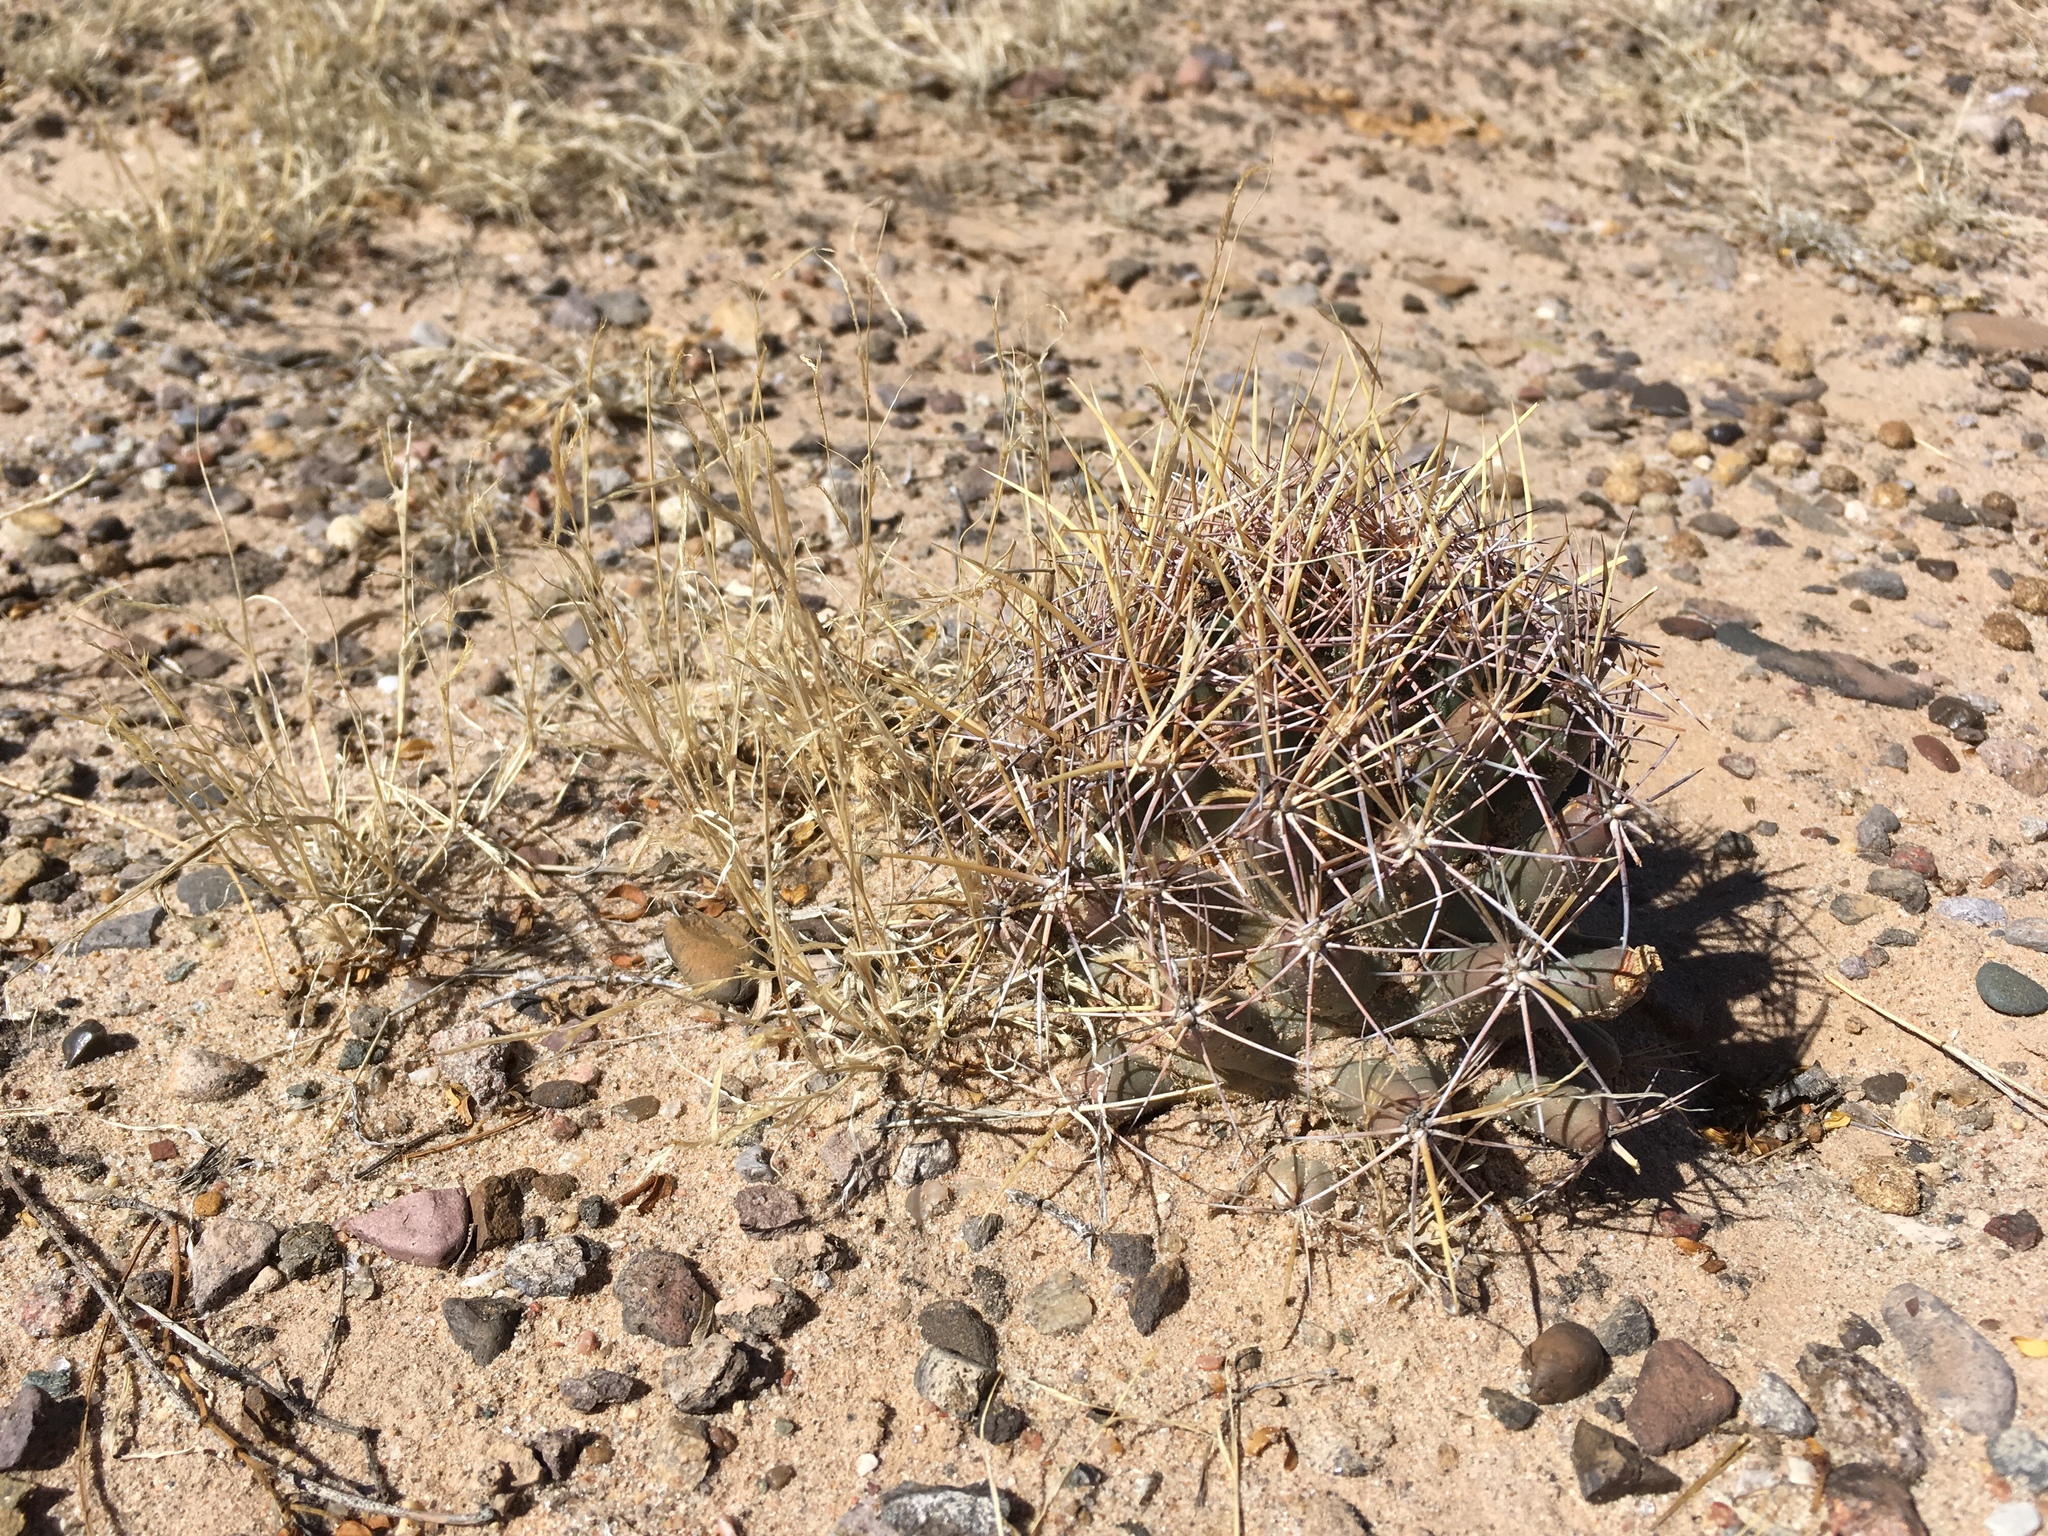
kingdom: Plantae
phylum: Tracheophyta
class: Magnoliopsida
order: Caryophyllales
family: Cactaceae
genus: Coryphantha
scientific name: Coryphantha robustispina
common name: Pima pineapple cactus
